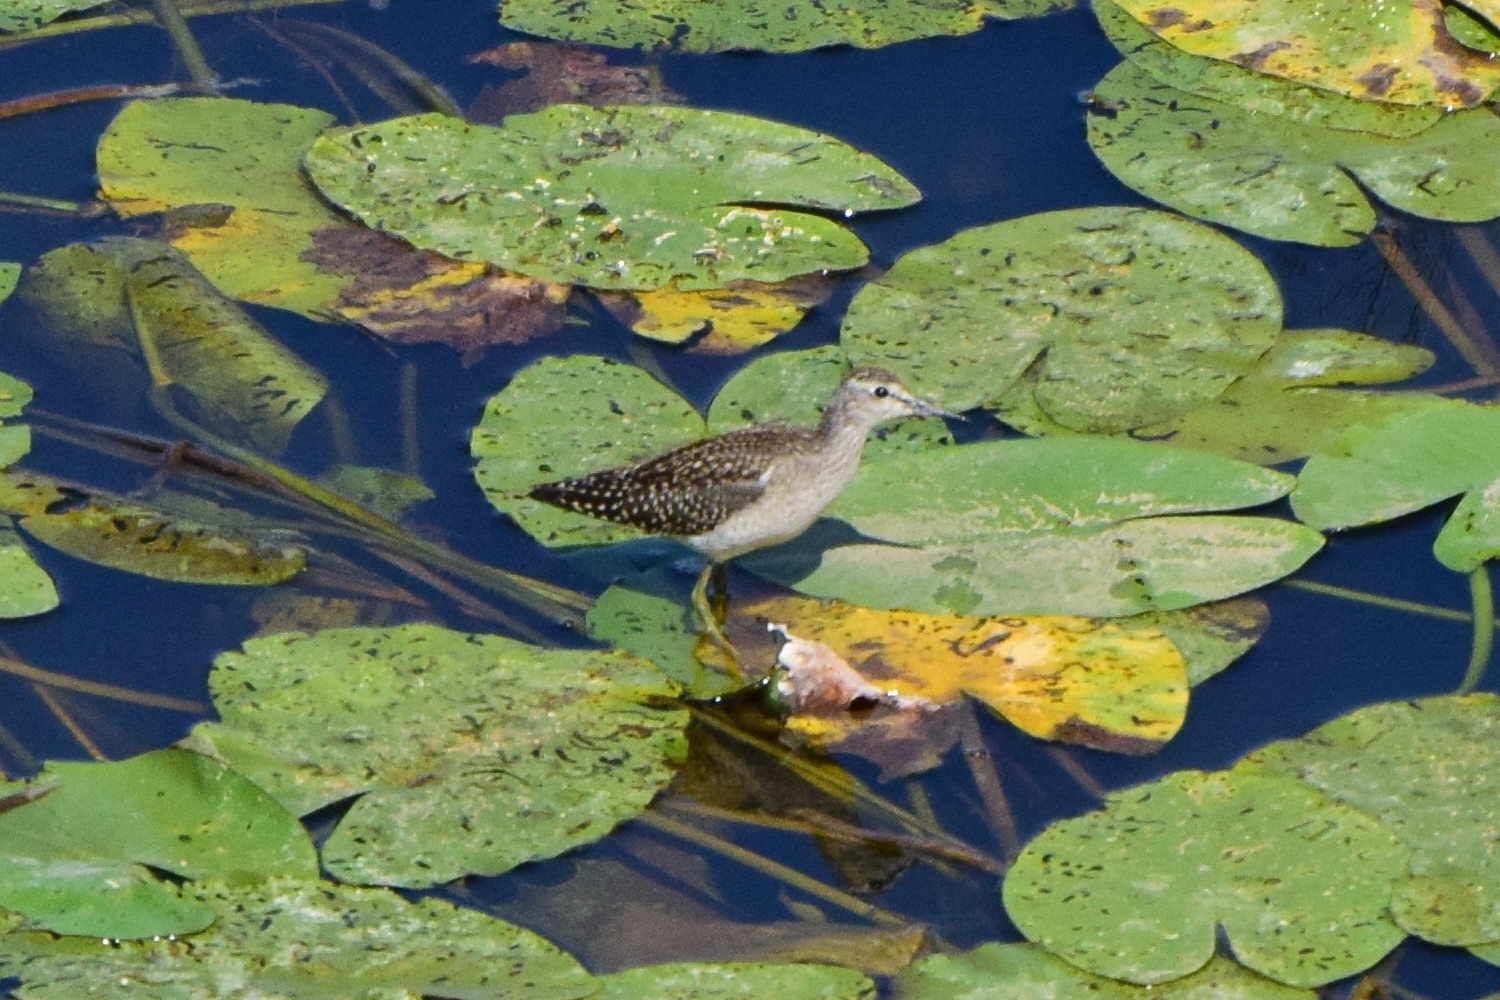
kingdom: Animalia
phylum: Chordata
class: Aves
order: Charadriiformes
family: Scolopacidae
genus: Tringa
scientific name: Tringa glareola
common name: Wood sandpiper
